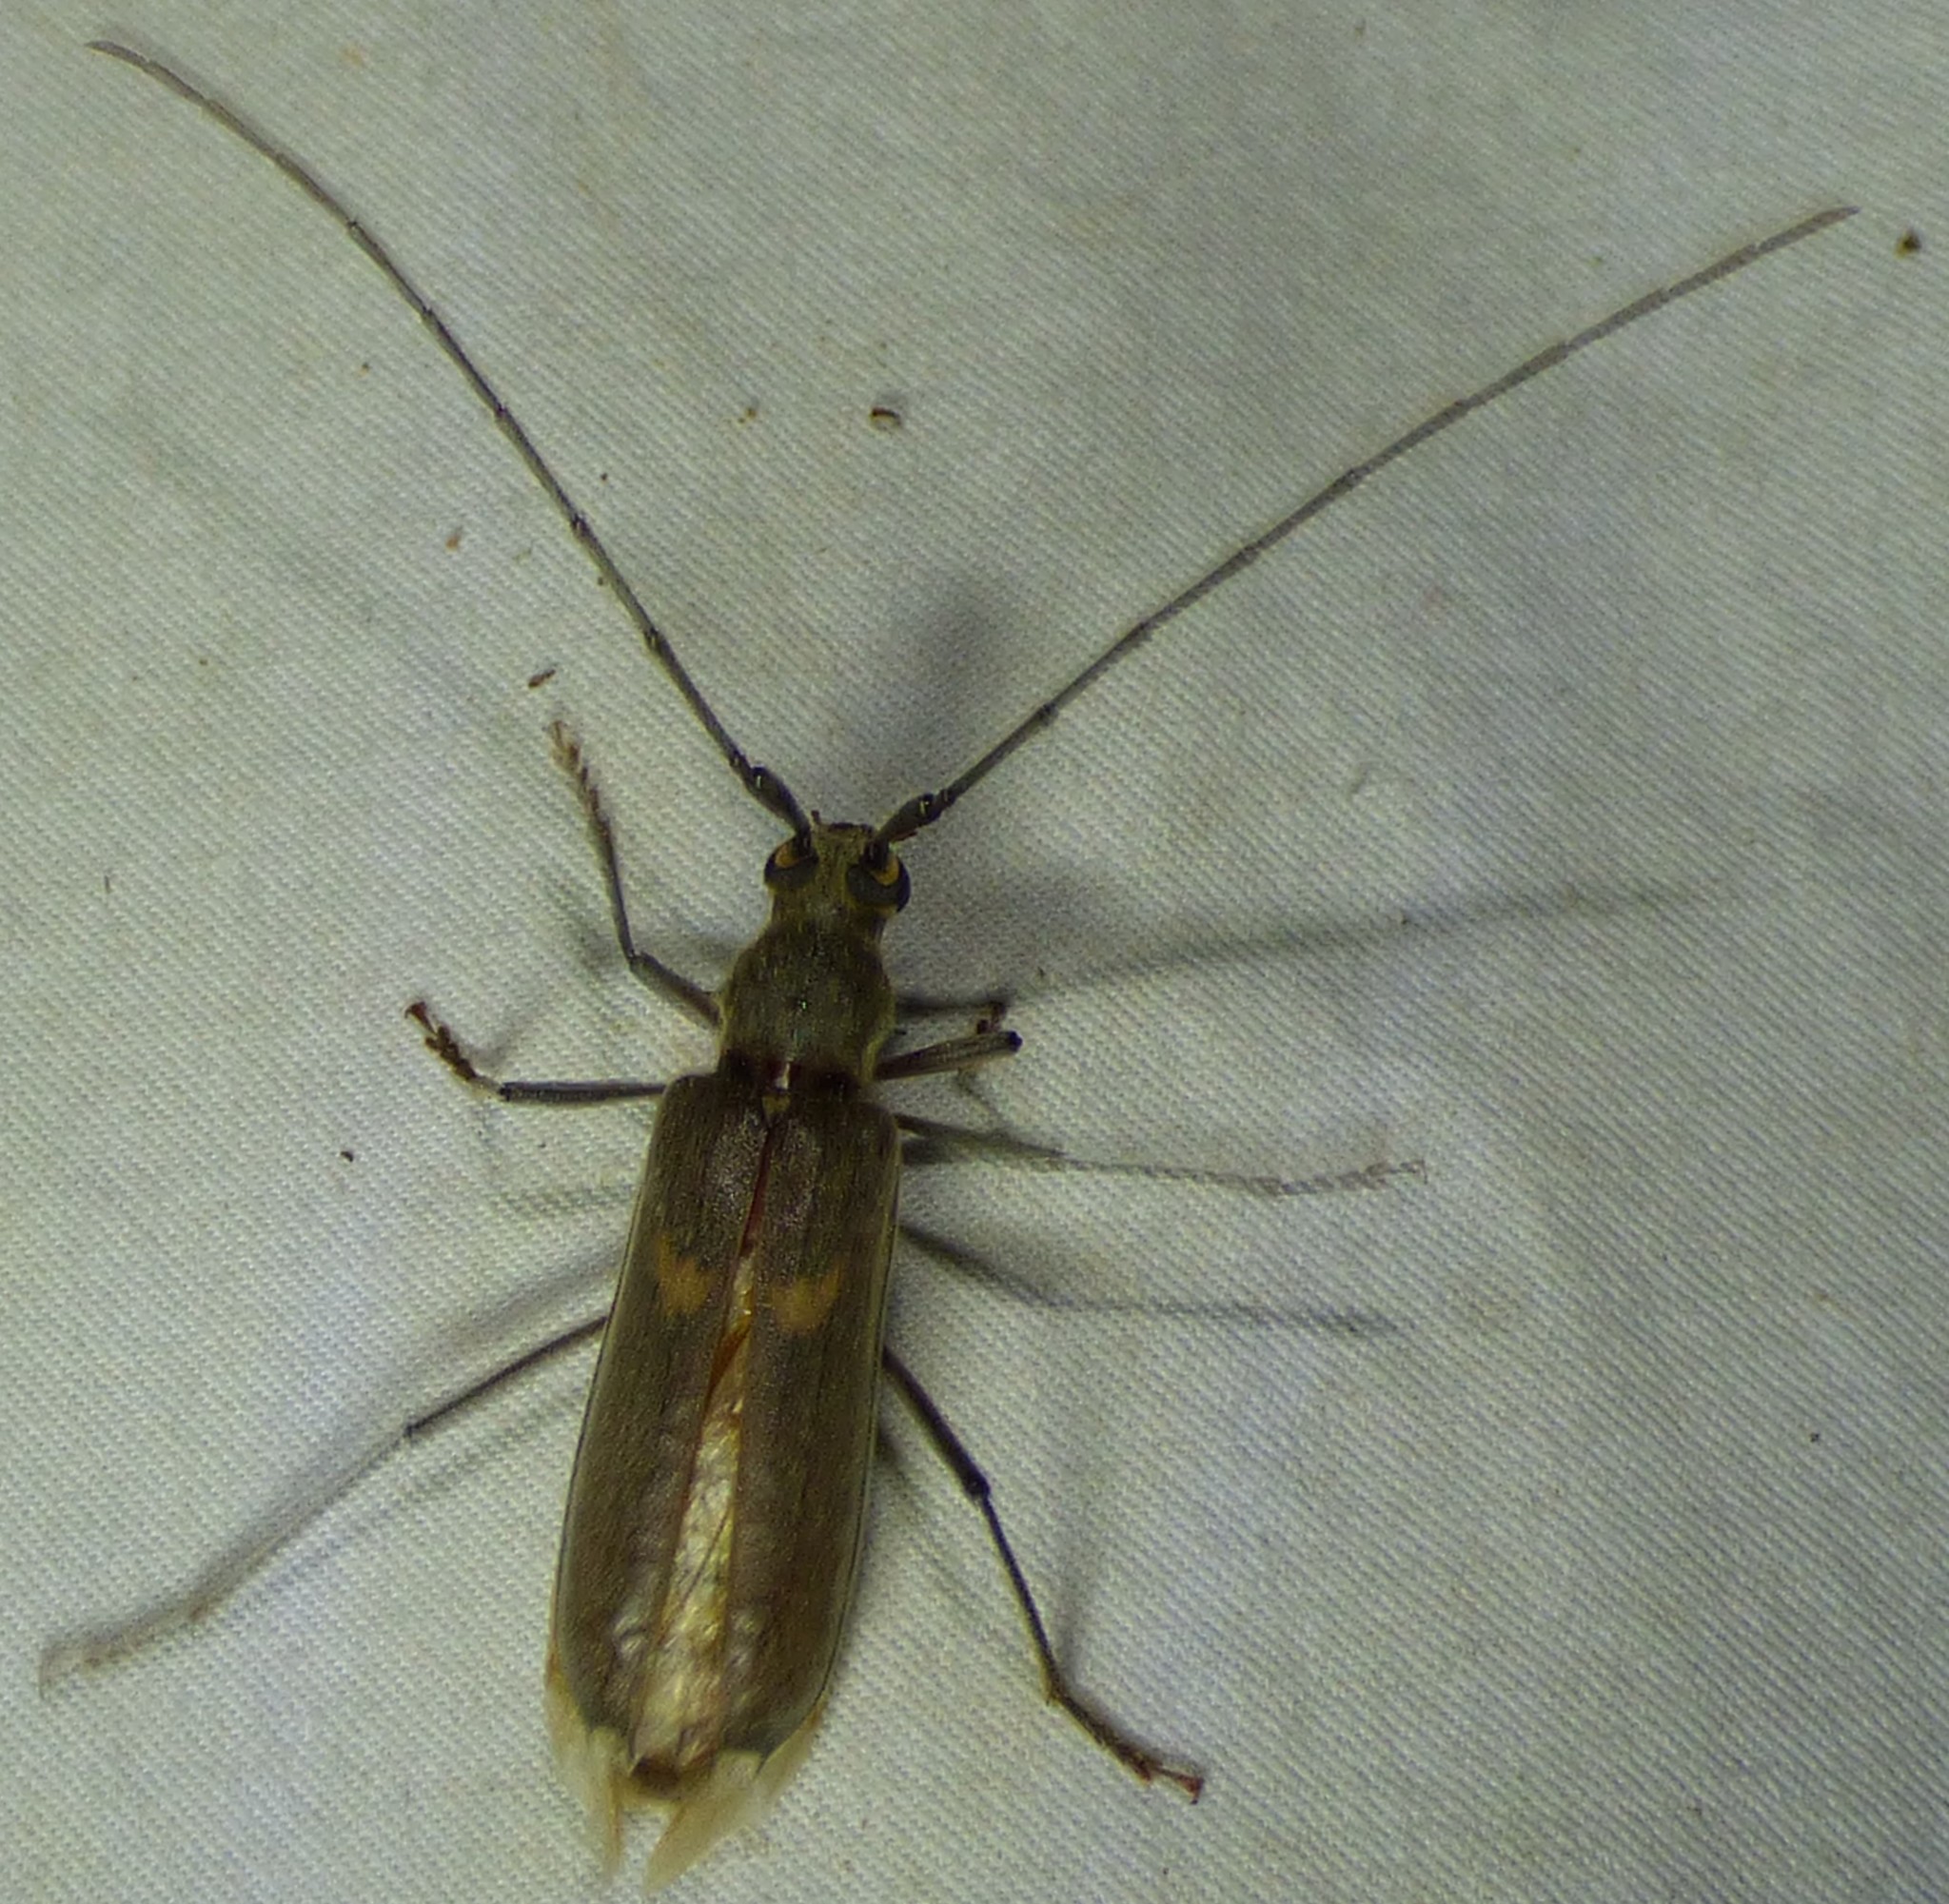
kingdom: Animalia
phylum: Arthropoda
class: Insecta
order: Coleoptera
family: Cerambycidae
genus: Knulliana
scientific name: Knulliana cincta
